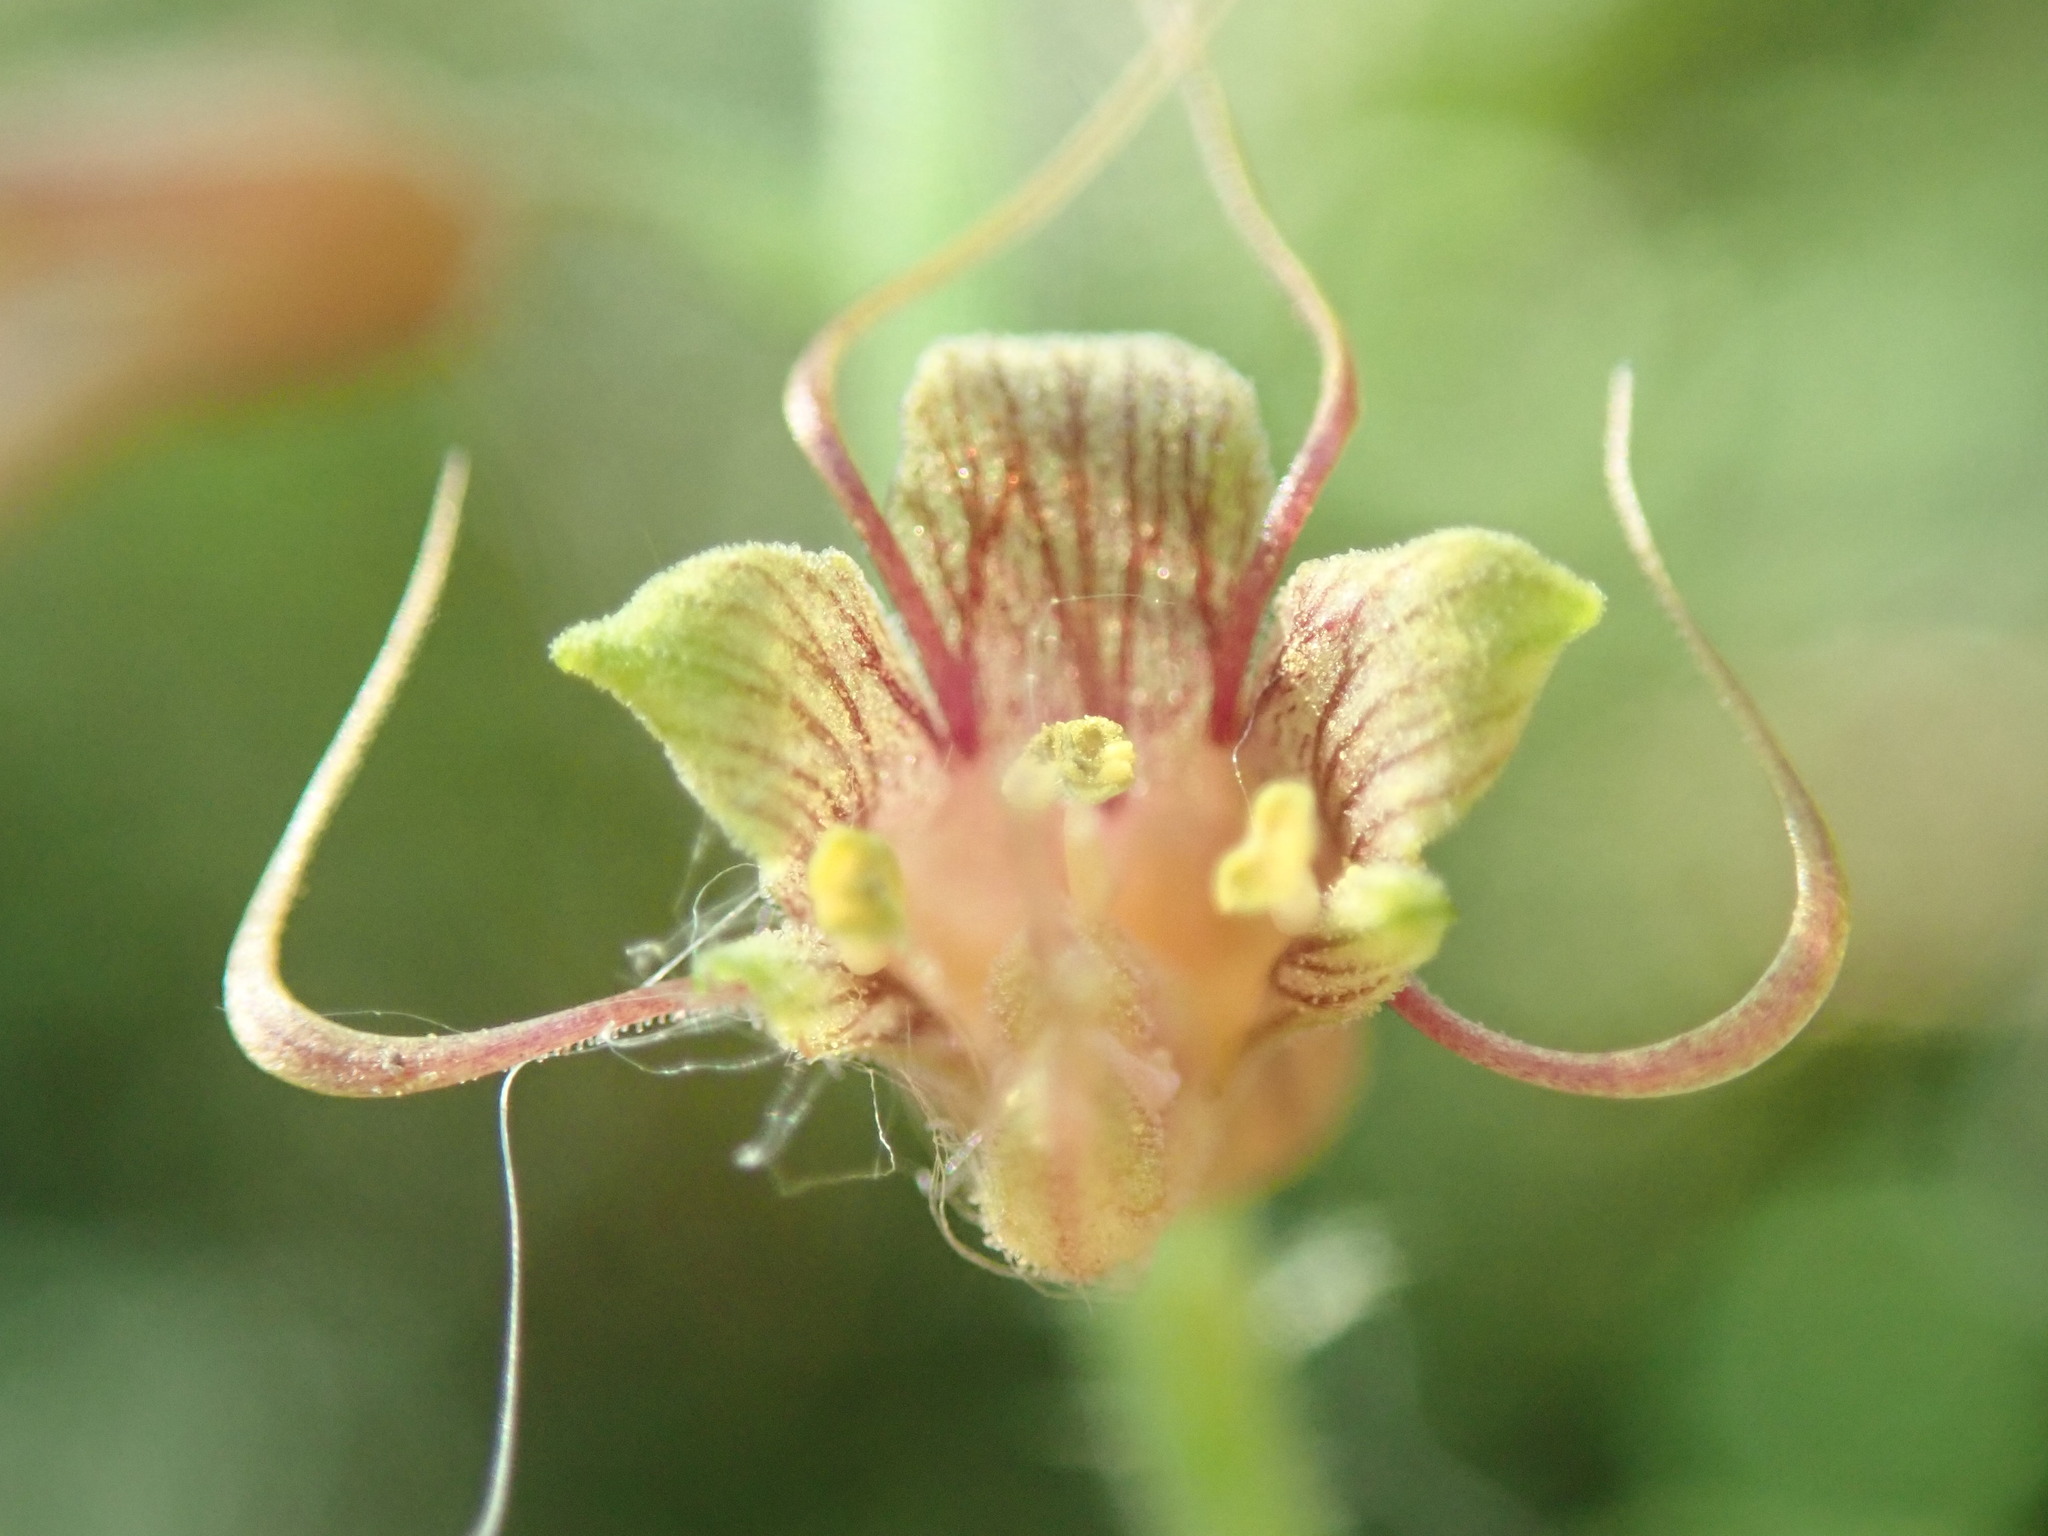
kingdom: Plantae
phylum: Tracheophyta
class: Magnoliopsida
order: Saxifragales
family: Saxifragaceae
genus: Tolmiea
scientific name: Tolmiea menziesii
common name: Pick-a-back-plant
